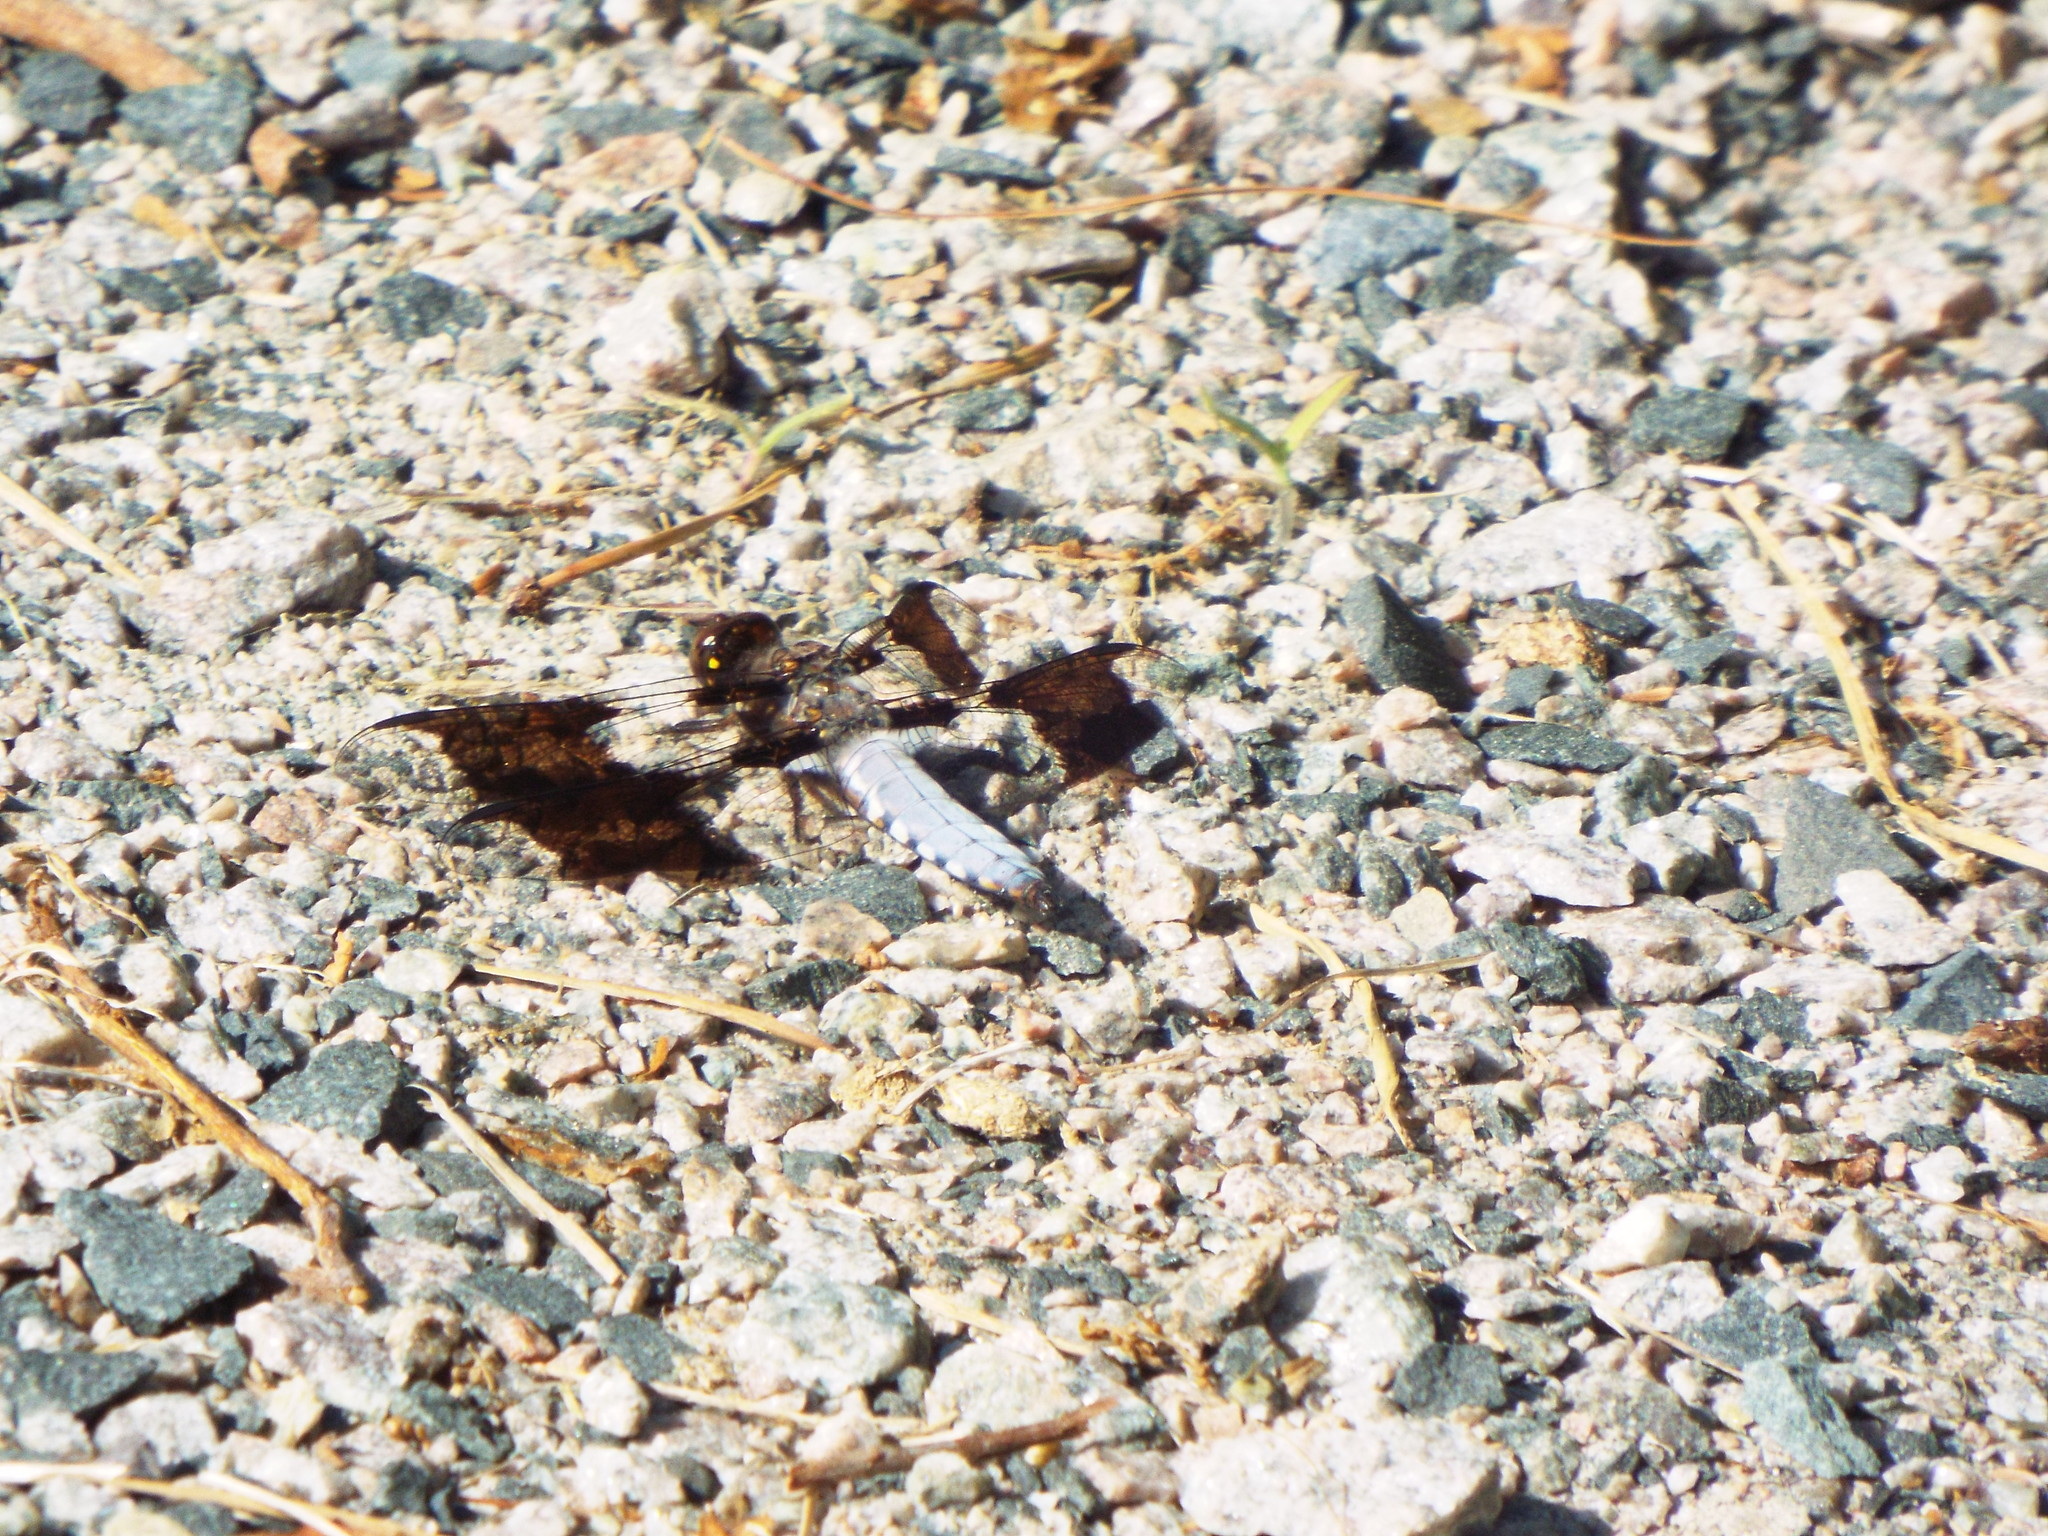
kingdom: Animalia
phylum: Arthropoda
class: Insecta
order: Odonata
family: Libellulidae
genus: Plathemis
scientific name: Plathemis lydia
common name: Common whitetail
